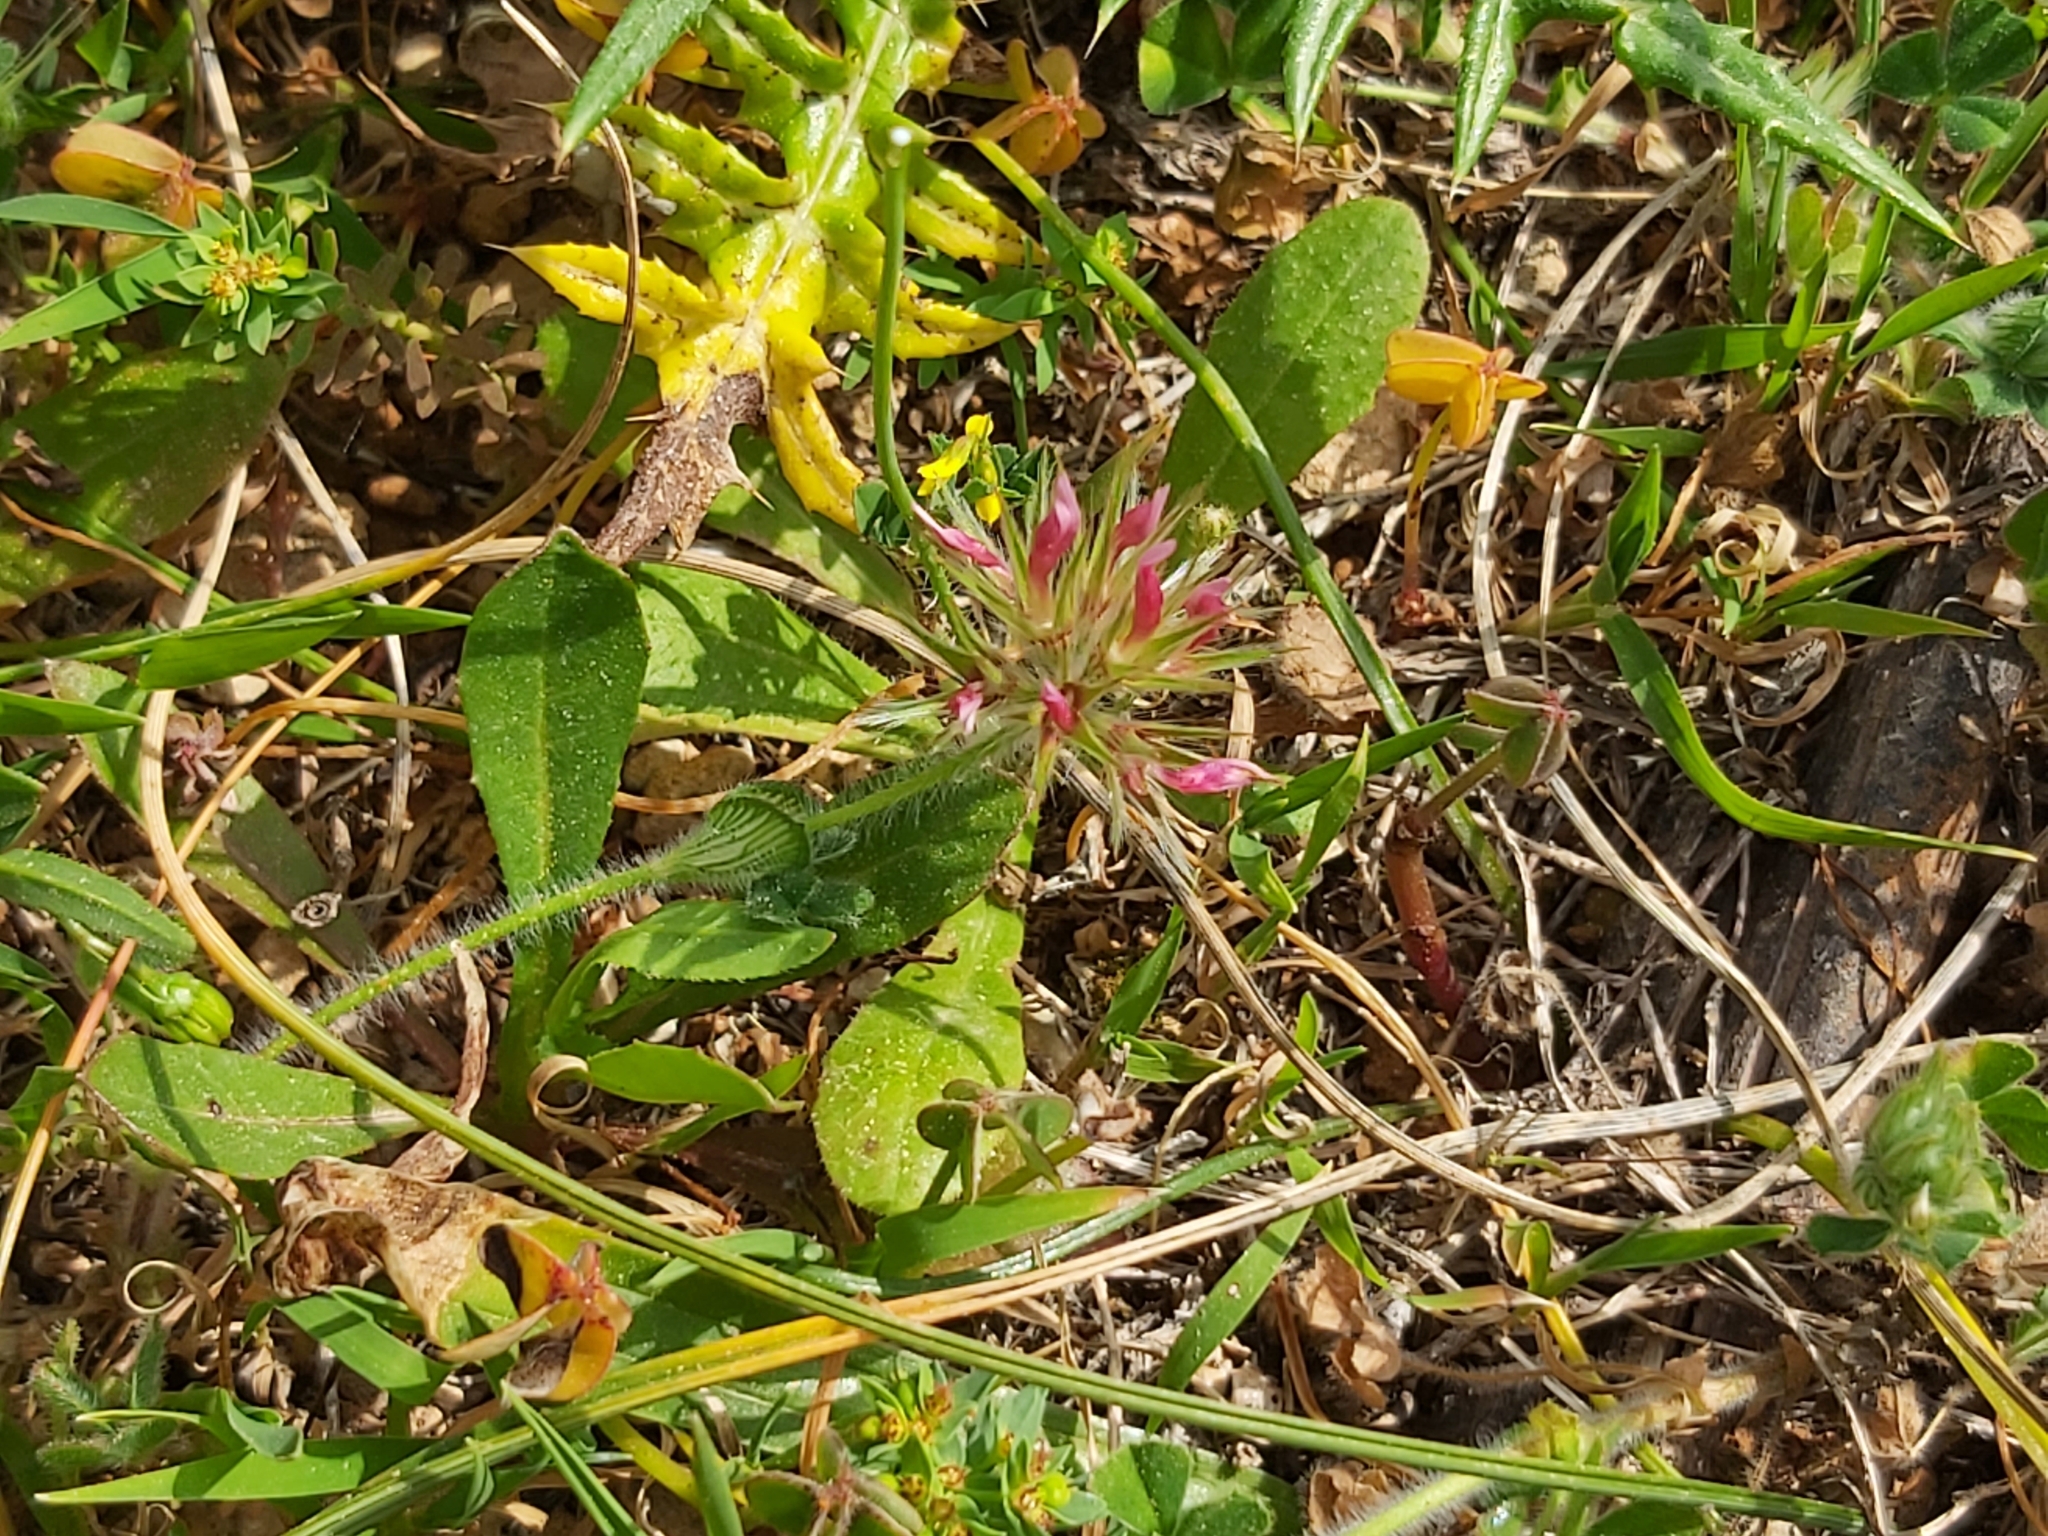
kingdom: Plantae
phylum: Tracheophyta
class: Magnoliopsida
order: Fabales
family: Fabaceae
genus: Trifolium
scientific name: Trifolium stellatum
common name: Starry clover
